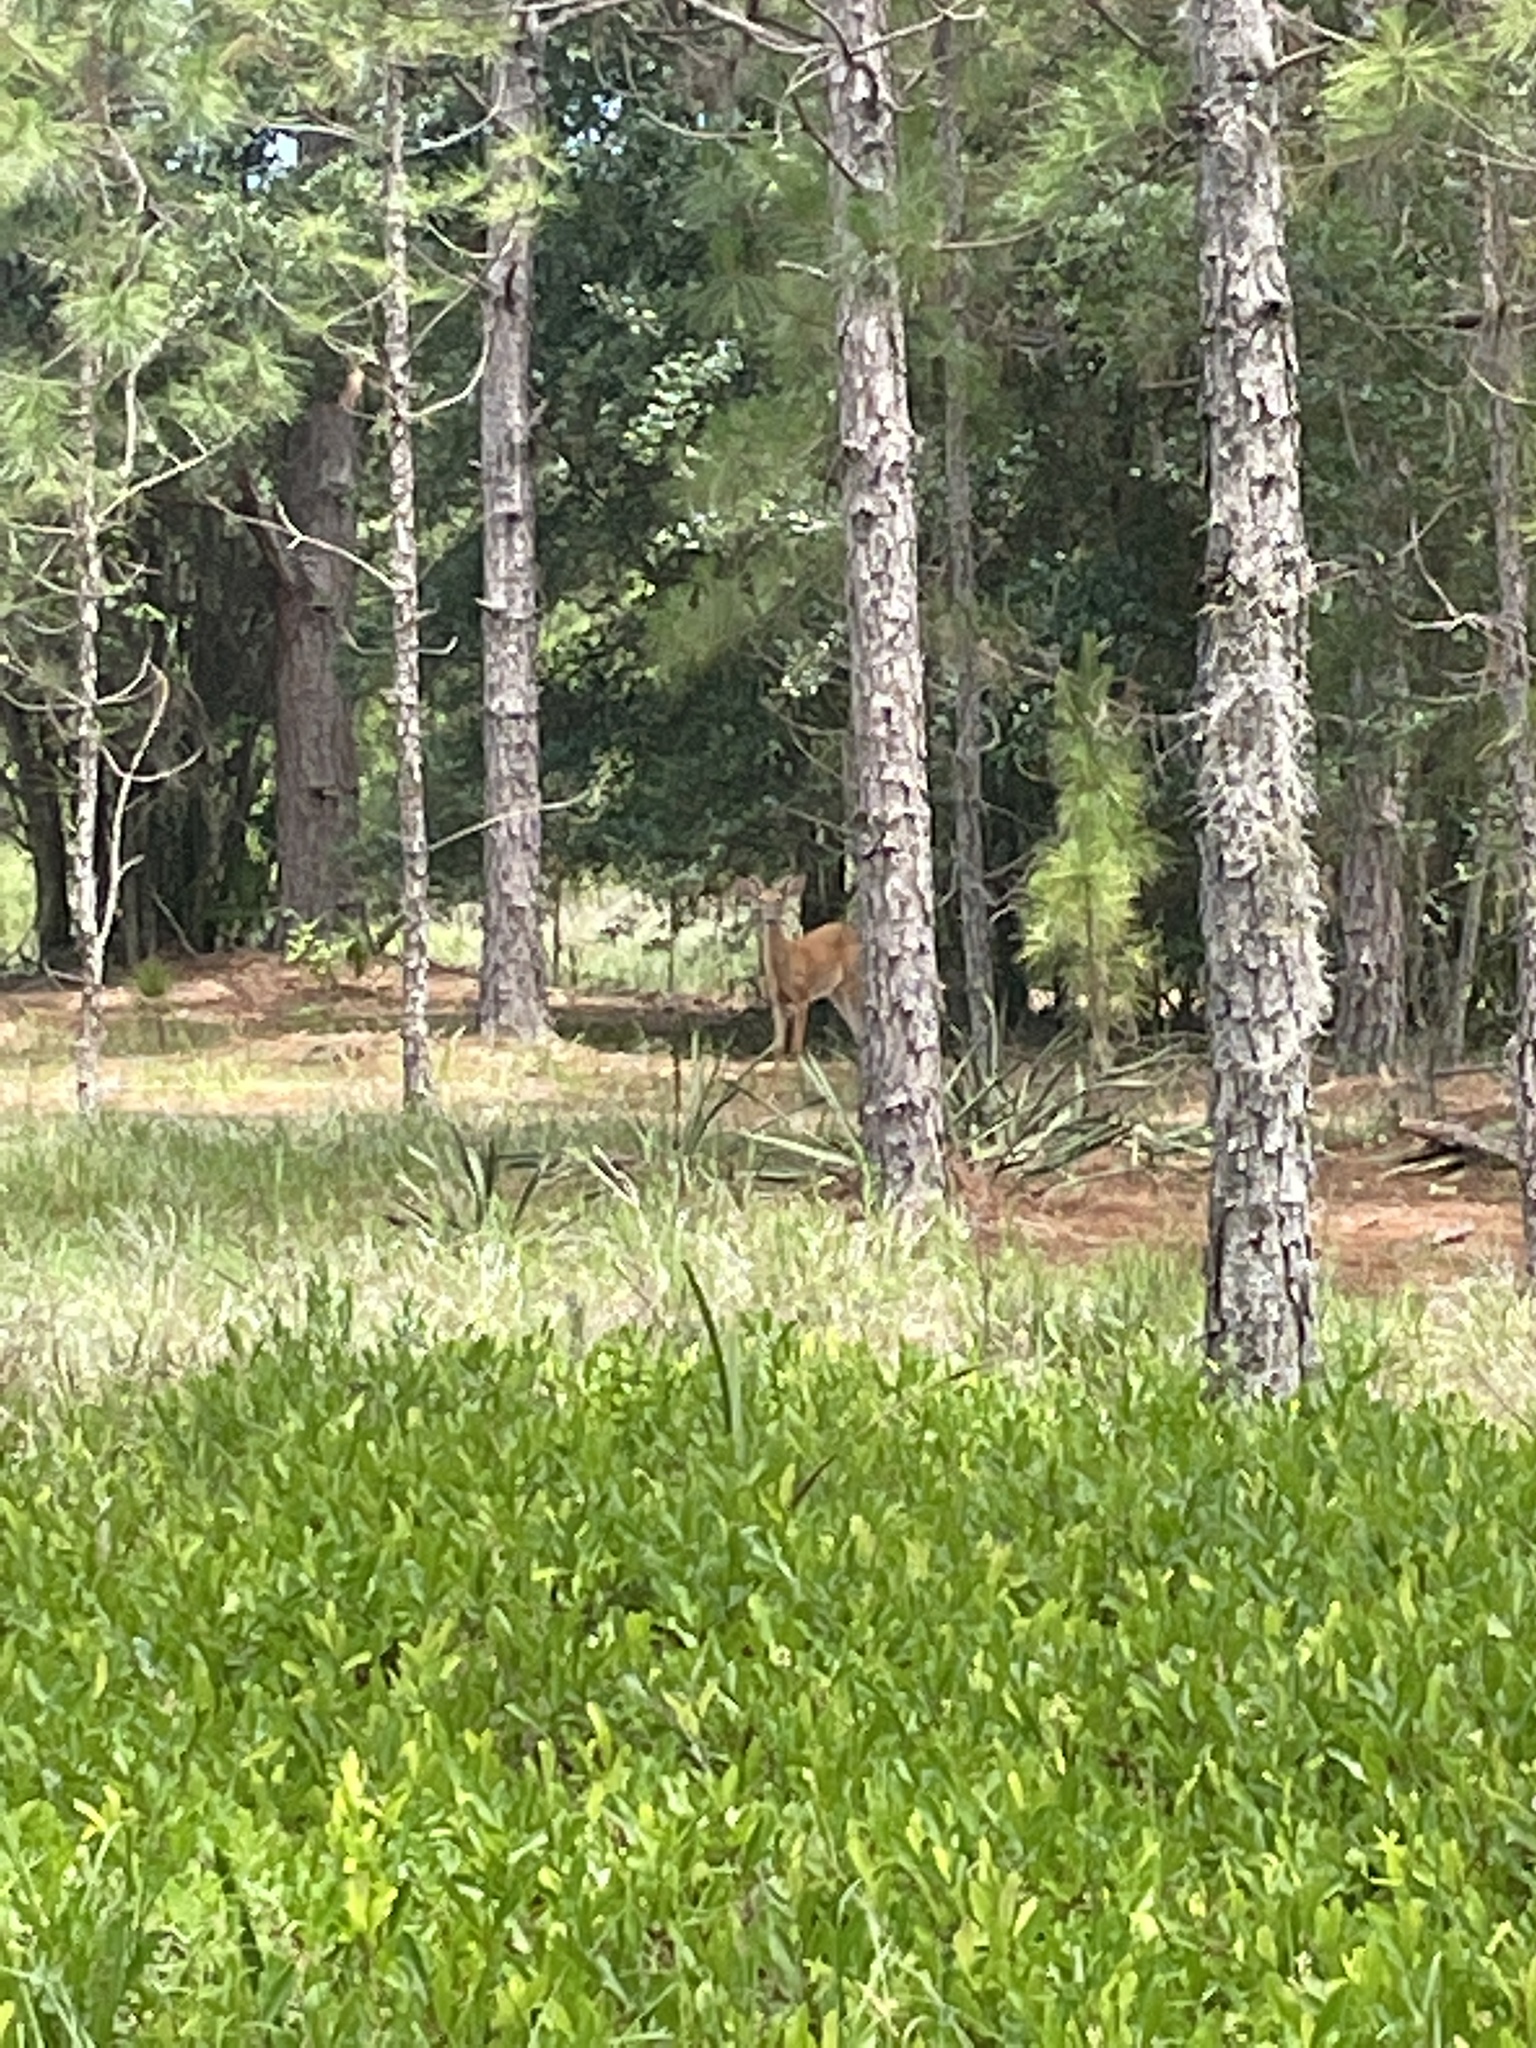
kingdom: Animalia
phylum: Chordata
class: Mammalia
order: Artiodactyla
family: Cervidae
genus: Odocoileus
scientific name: Odocoileus virginianus
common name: White-tailed deer
